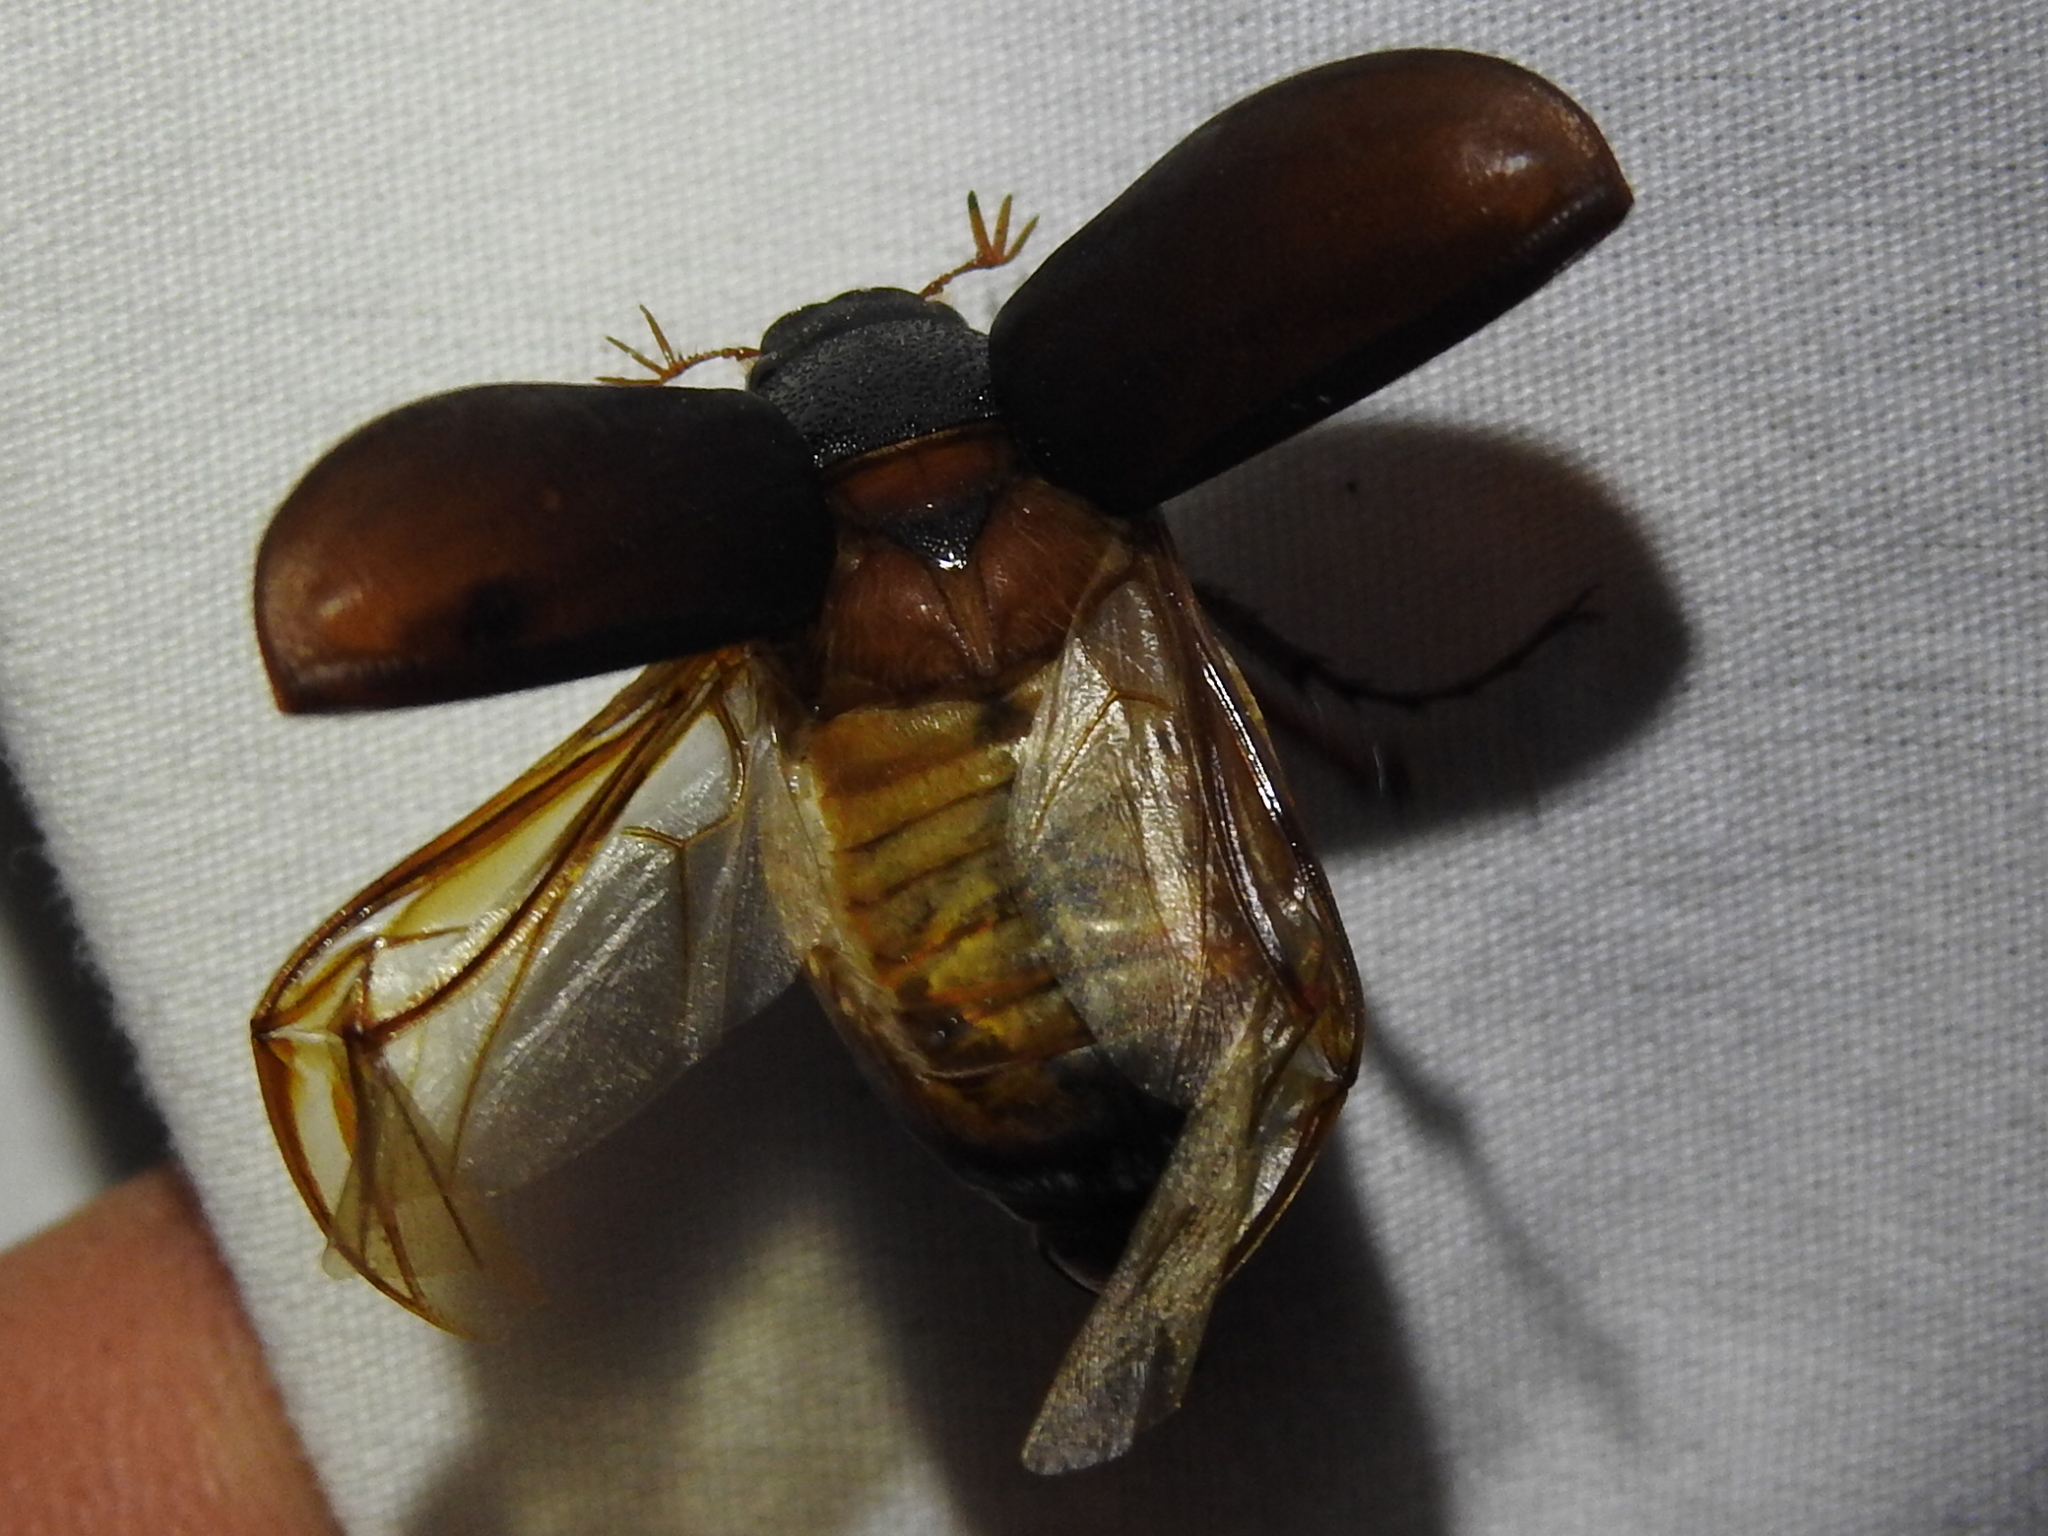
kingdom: Animalia
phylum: Arthropoda
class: Insecta
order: Coleoptera
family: Scarabaeidae
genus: Phyllophaga
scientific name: Phyllophaga prunina
